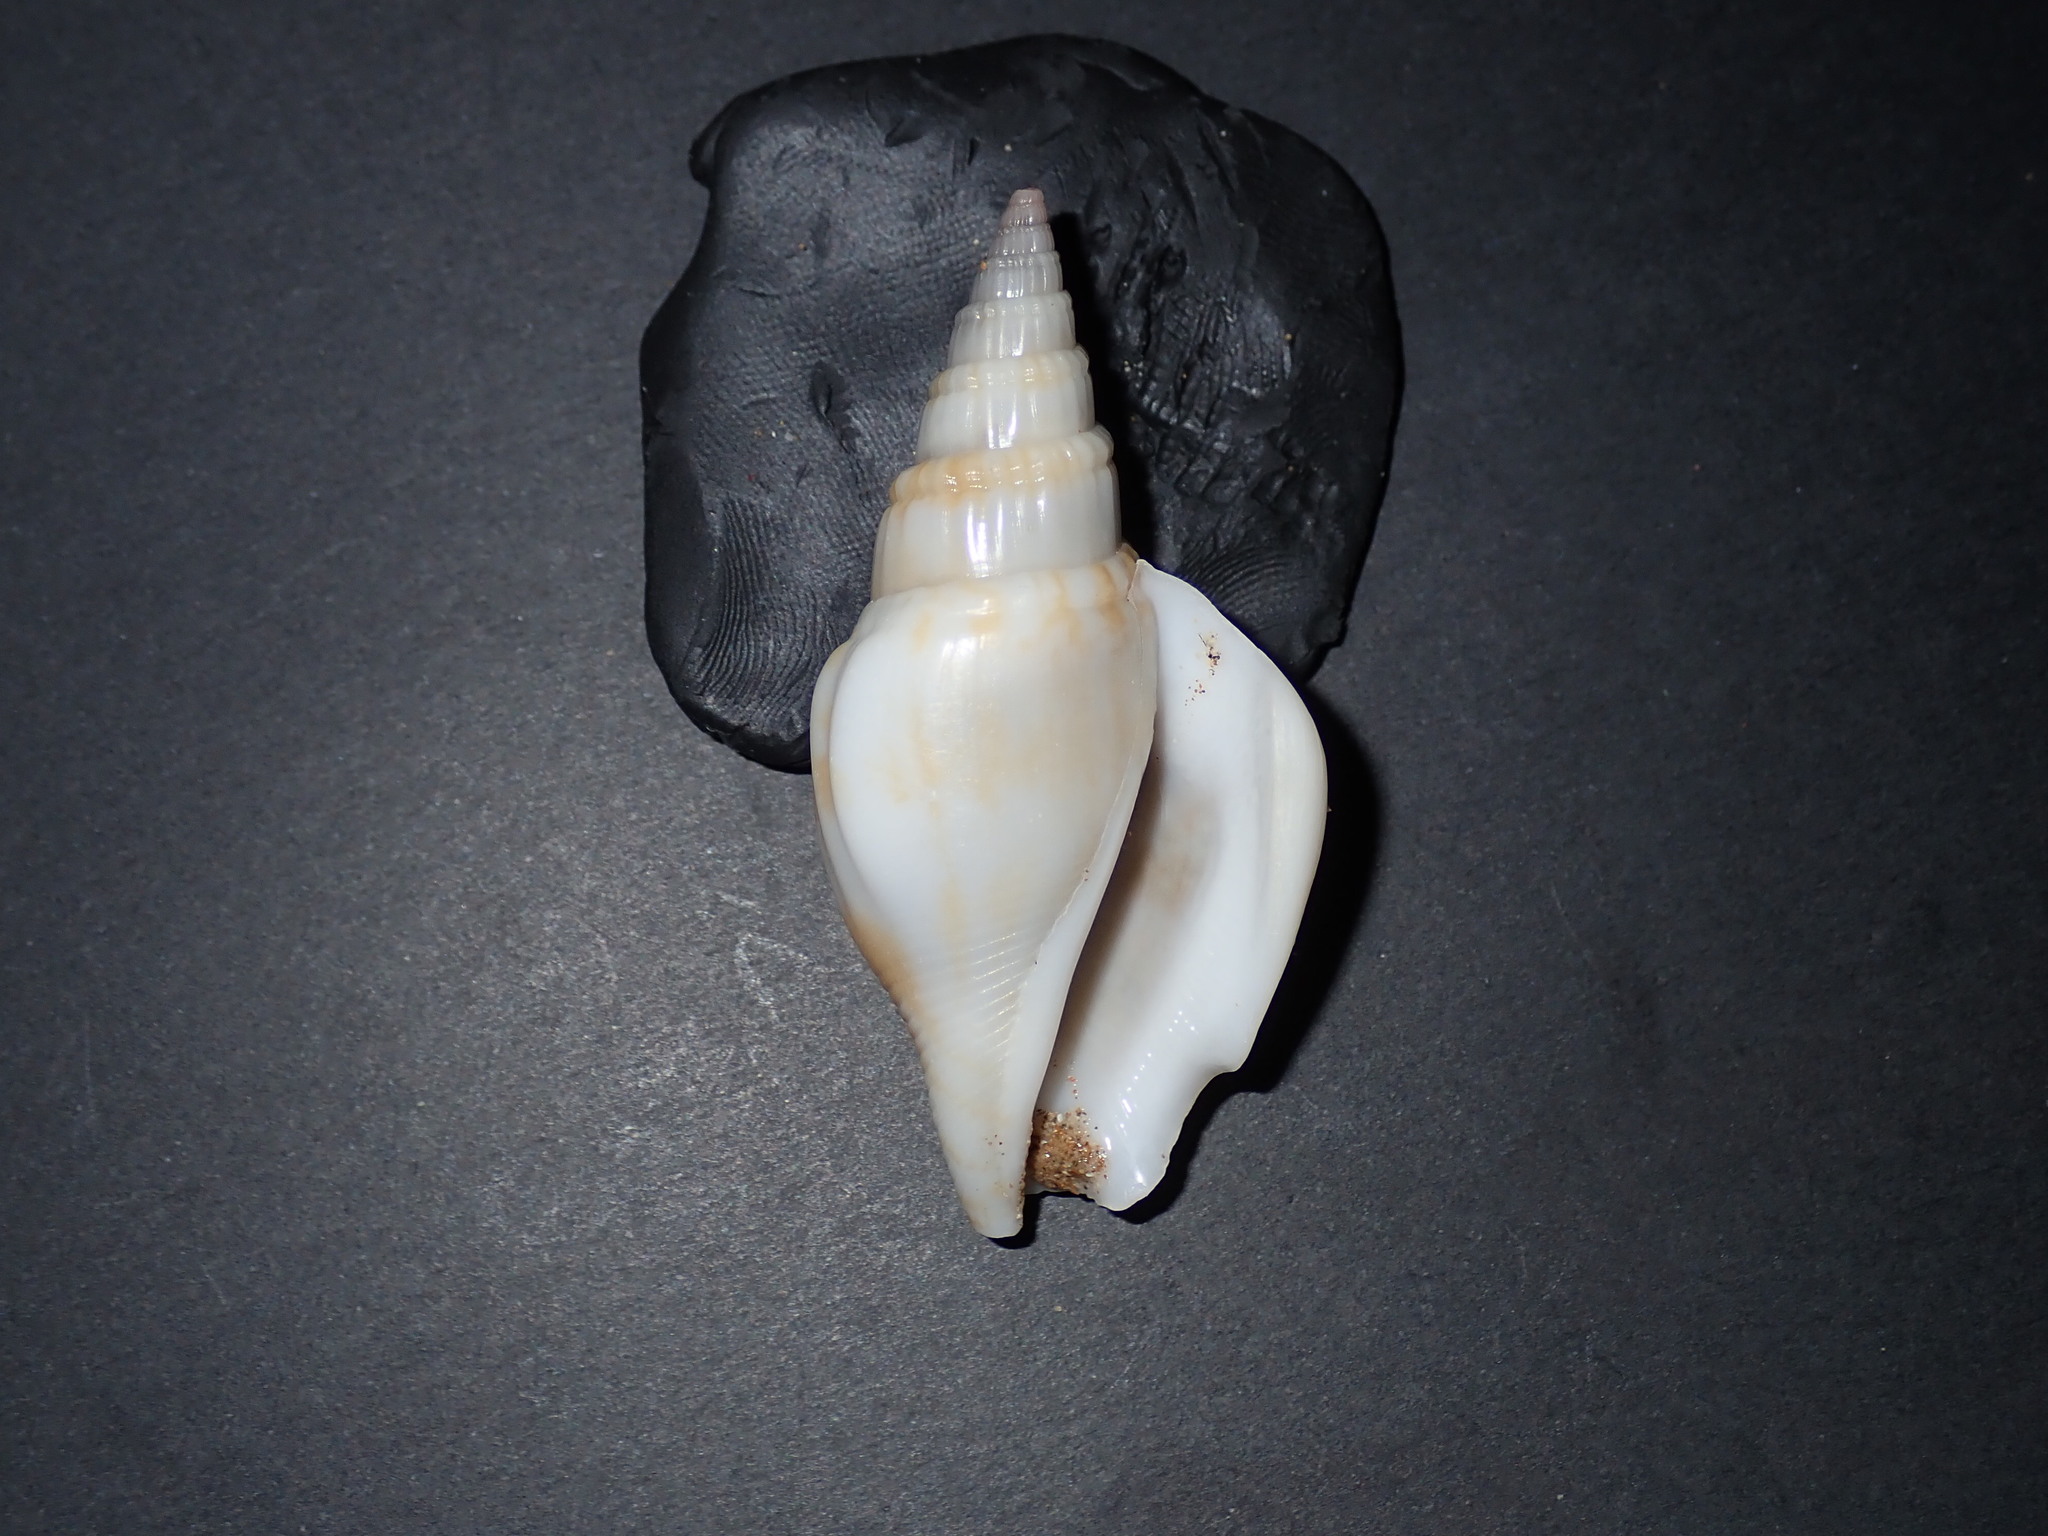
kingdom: Animalia
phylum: Mollusca
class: Gastropoda
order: Littorinimorpha
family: Strombidae
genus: Doxander
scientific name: Doxander campbellii
